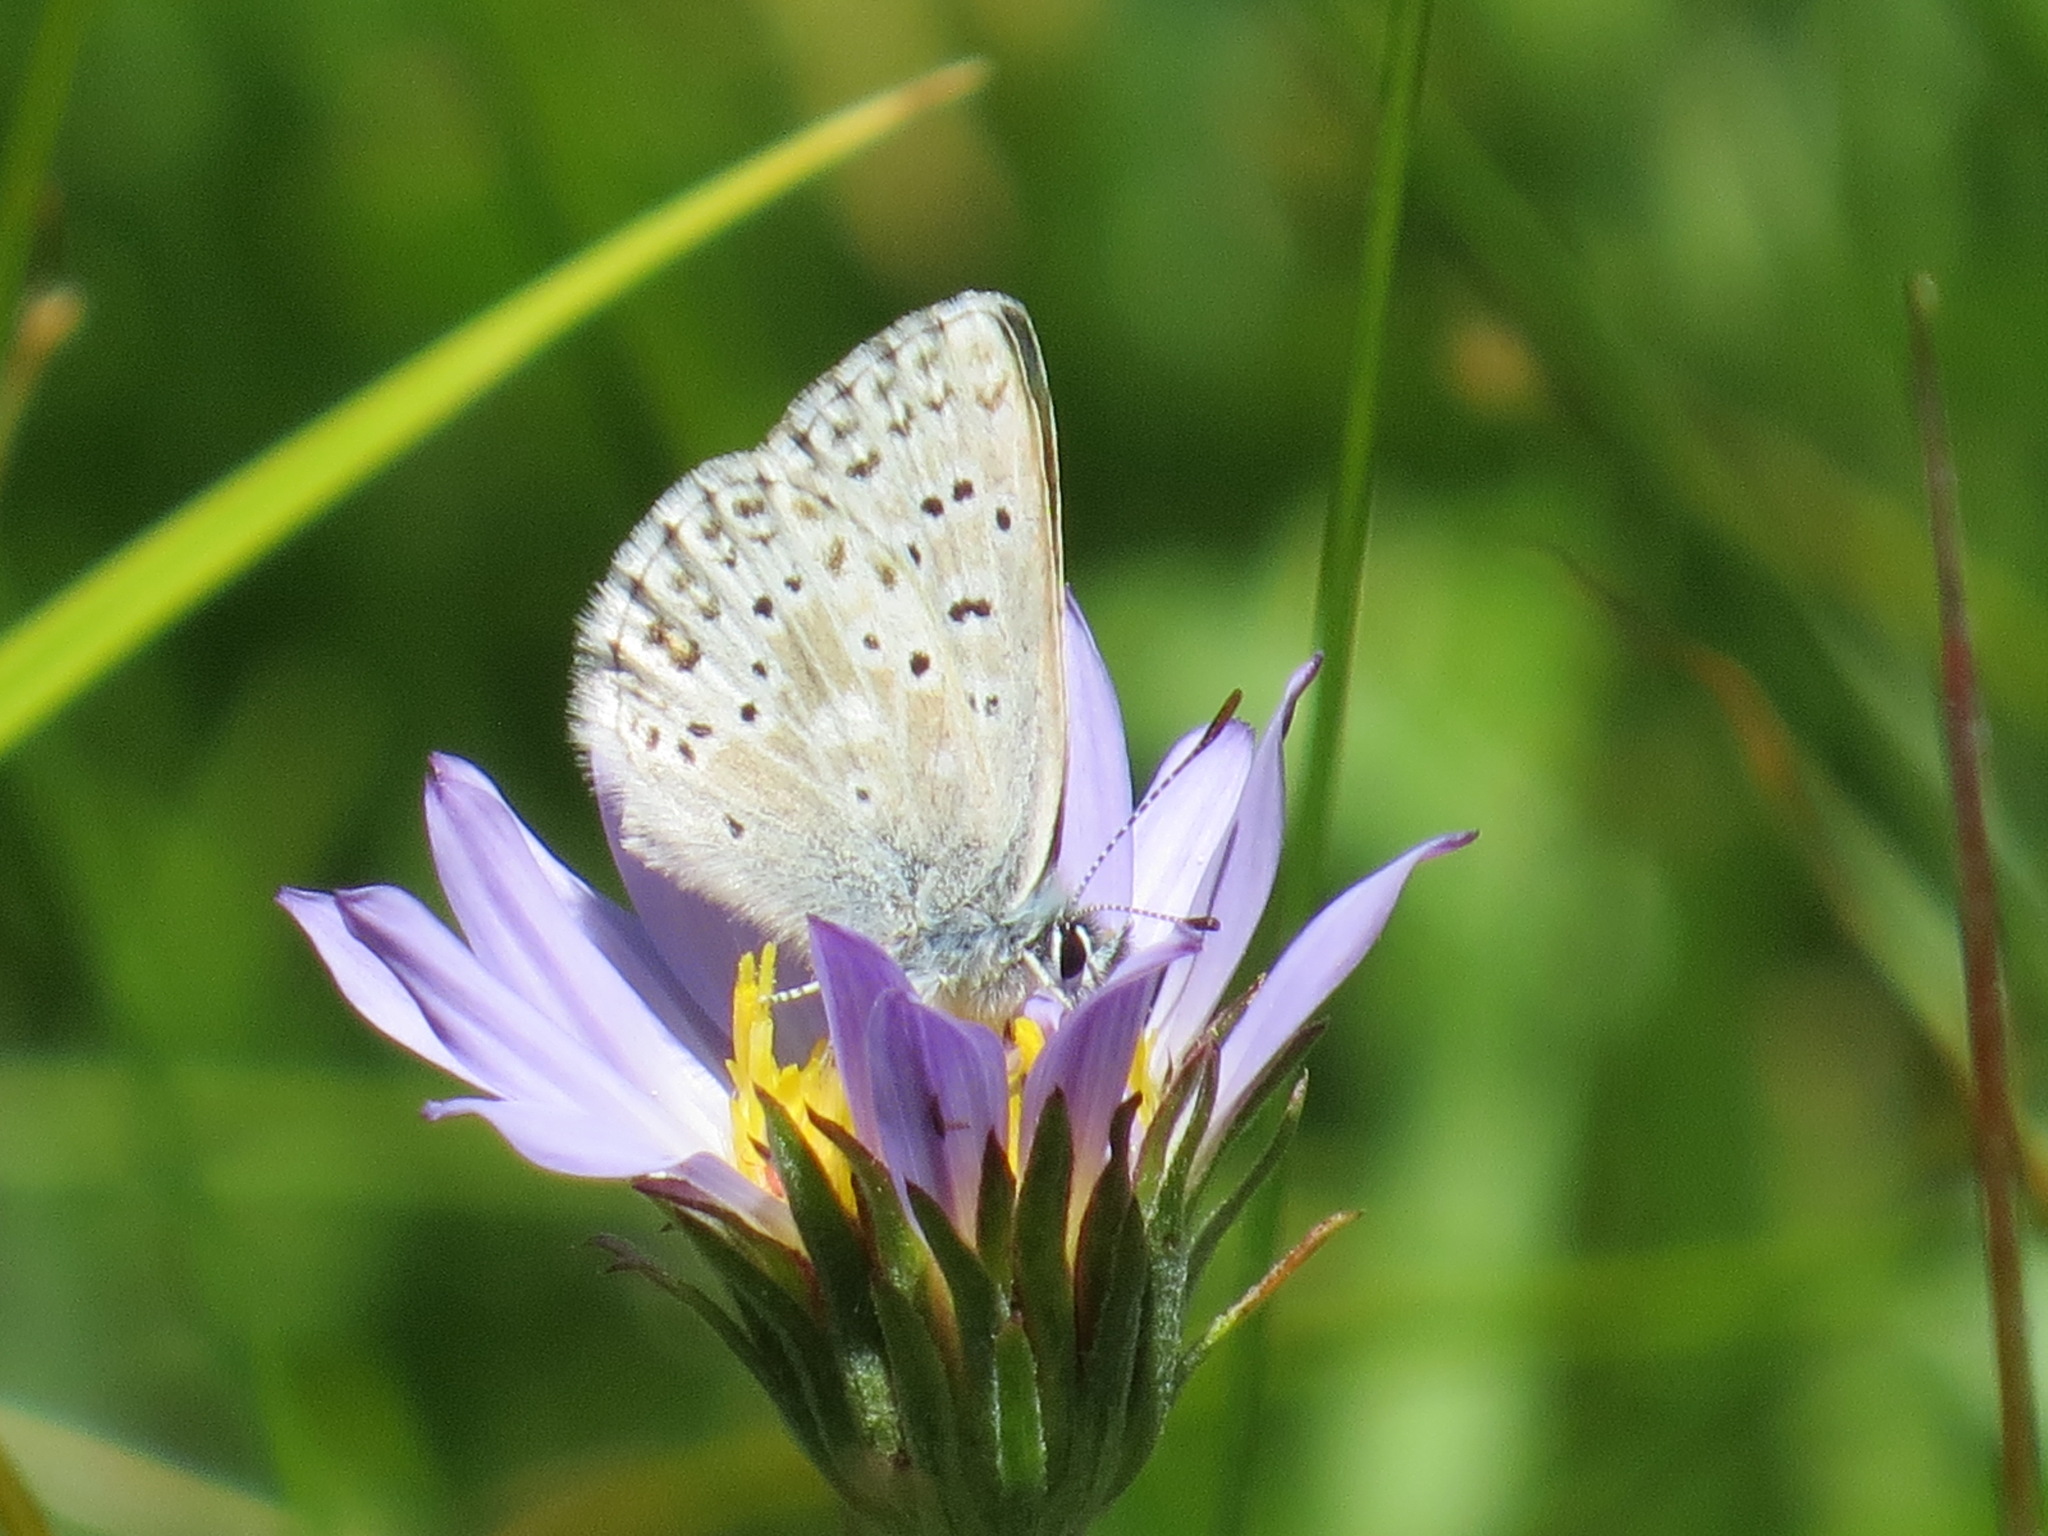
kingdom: Animalia
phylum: Arthropoda
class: Insecta
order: Lepidoptera
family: Lycaenidae
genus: Agriades
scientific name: Agriades podarce
